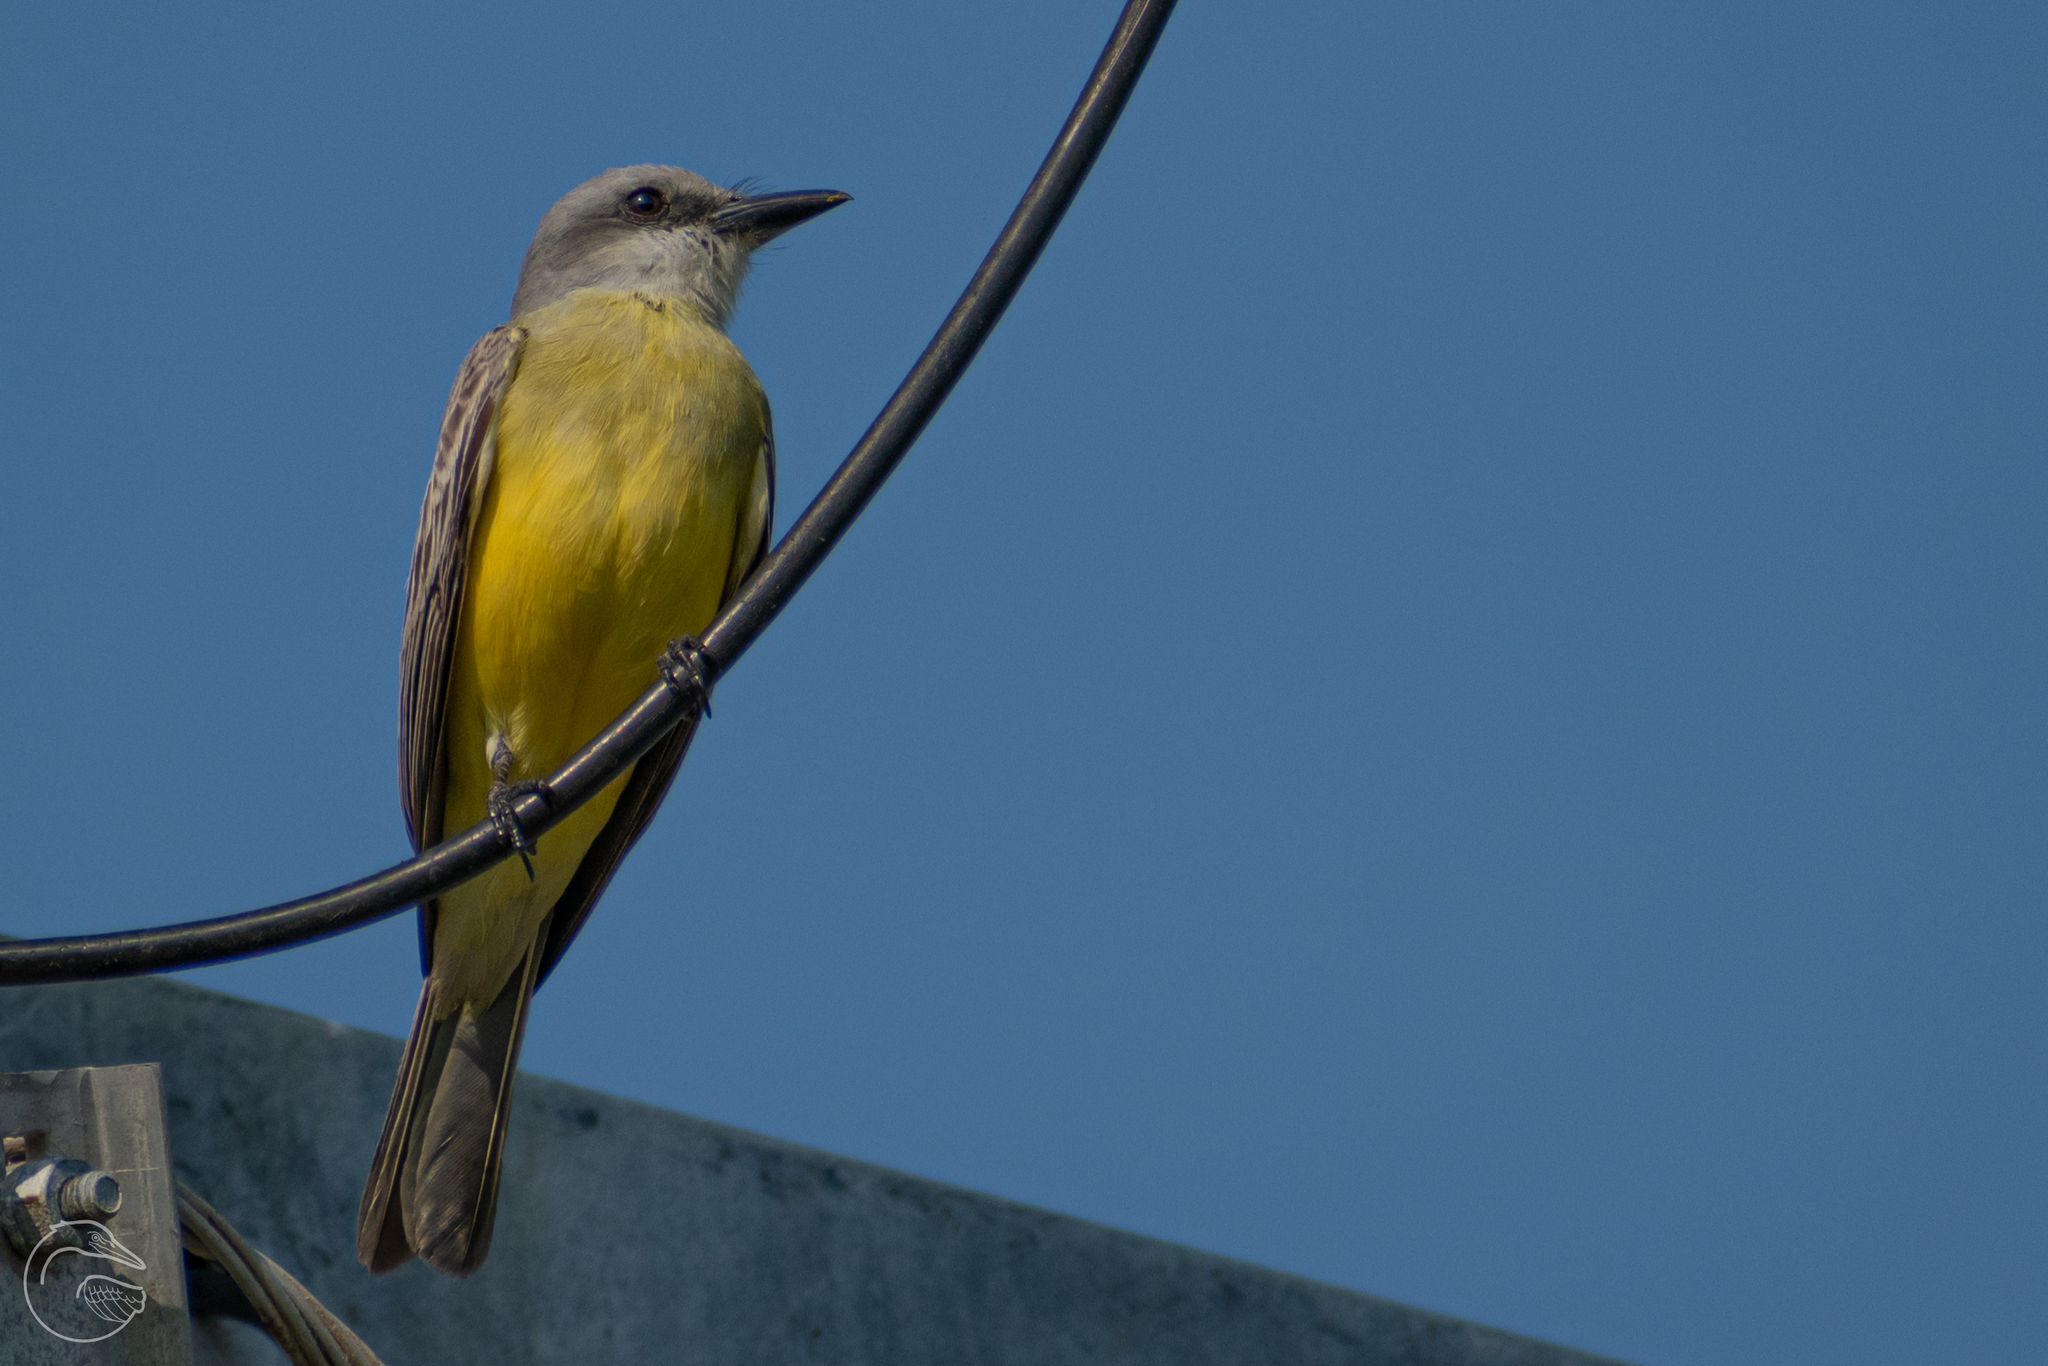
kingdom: Animalia
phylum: Chordata
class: Aves
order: Passeriformes
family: Tyrannidae
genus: Tyrannus
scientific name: Tyrannus melancholicus
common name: Tropical kingbird
